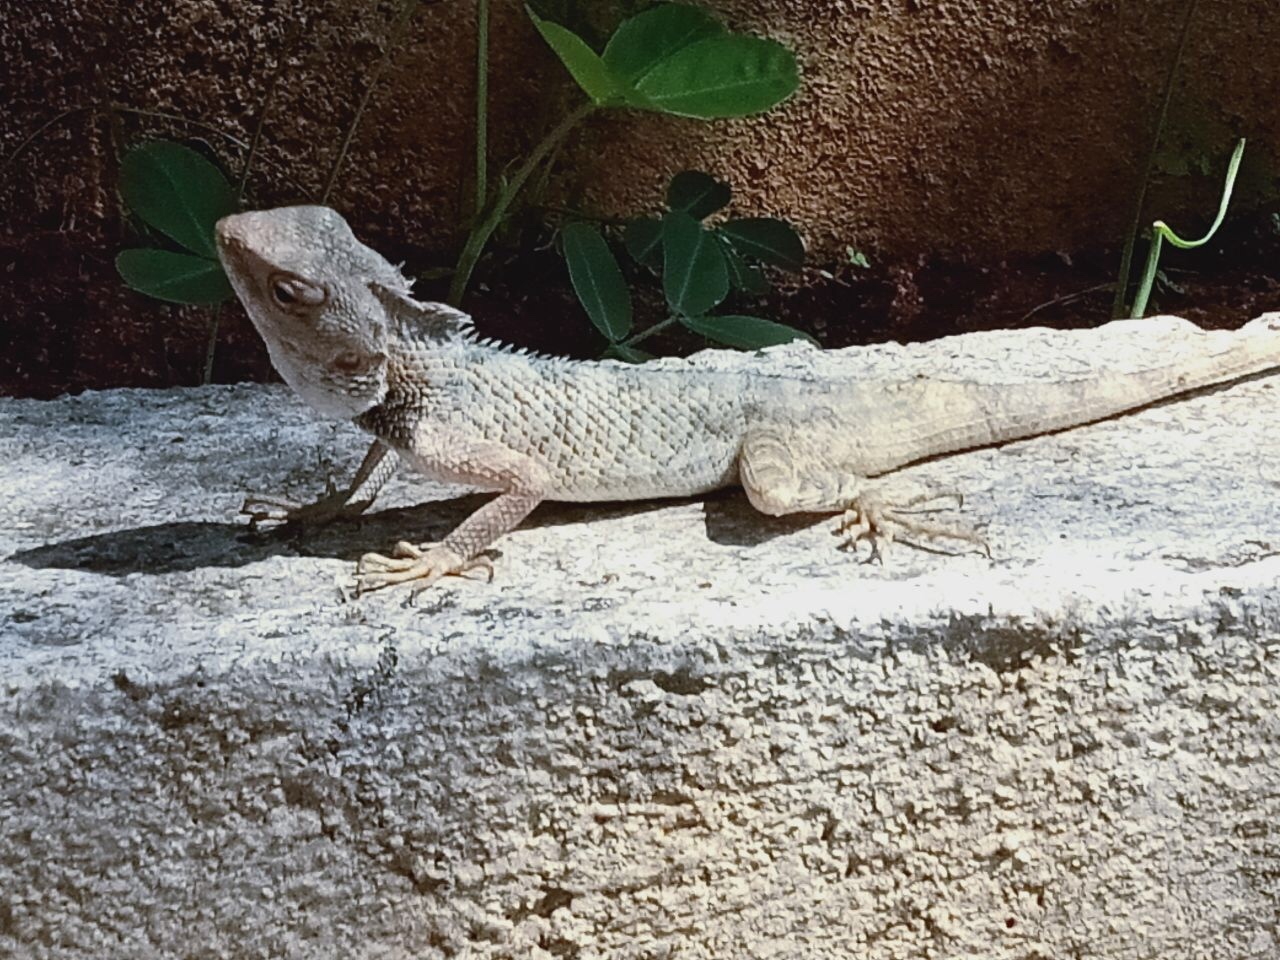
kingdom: Animalia
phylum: Chordata
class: Squamata
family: Agamidae
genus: Calotes
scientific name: Calotes versicolor
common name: Oriental garden lizard
